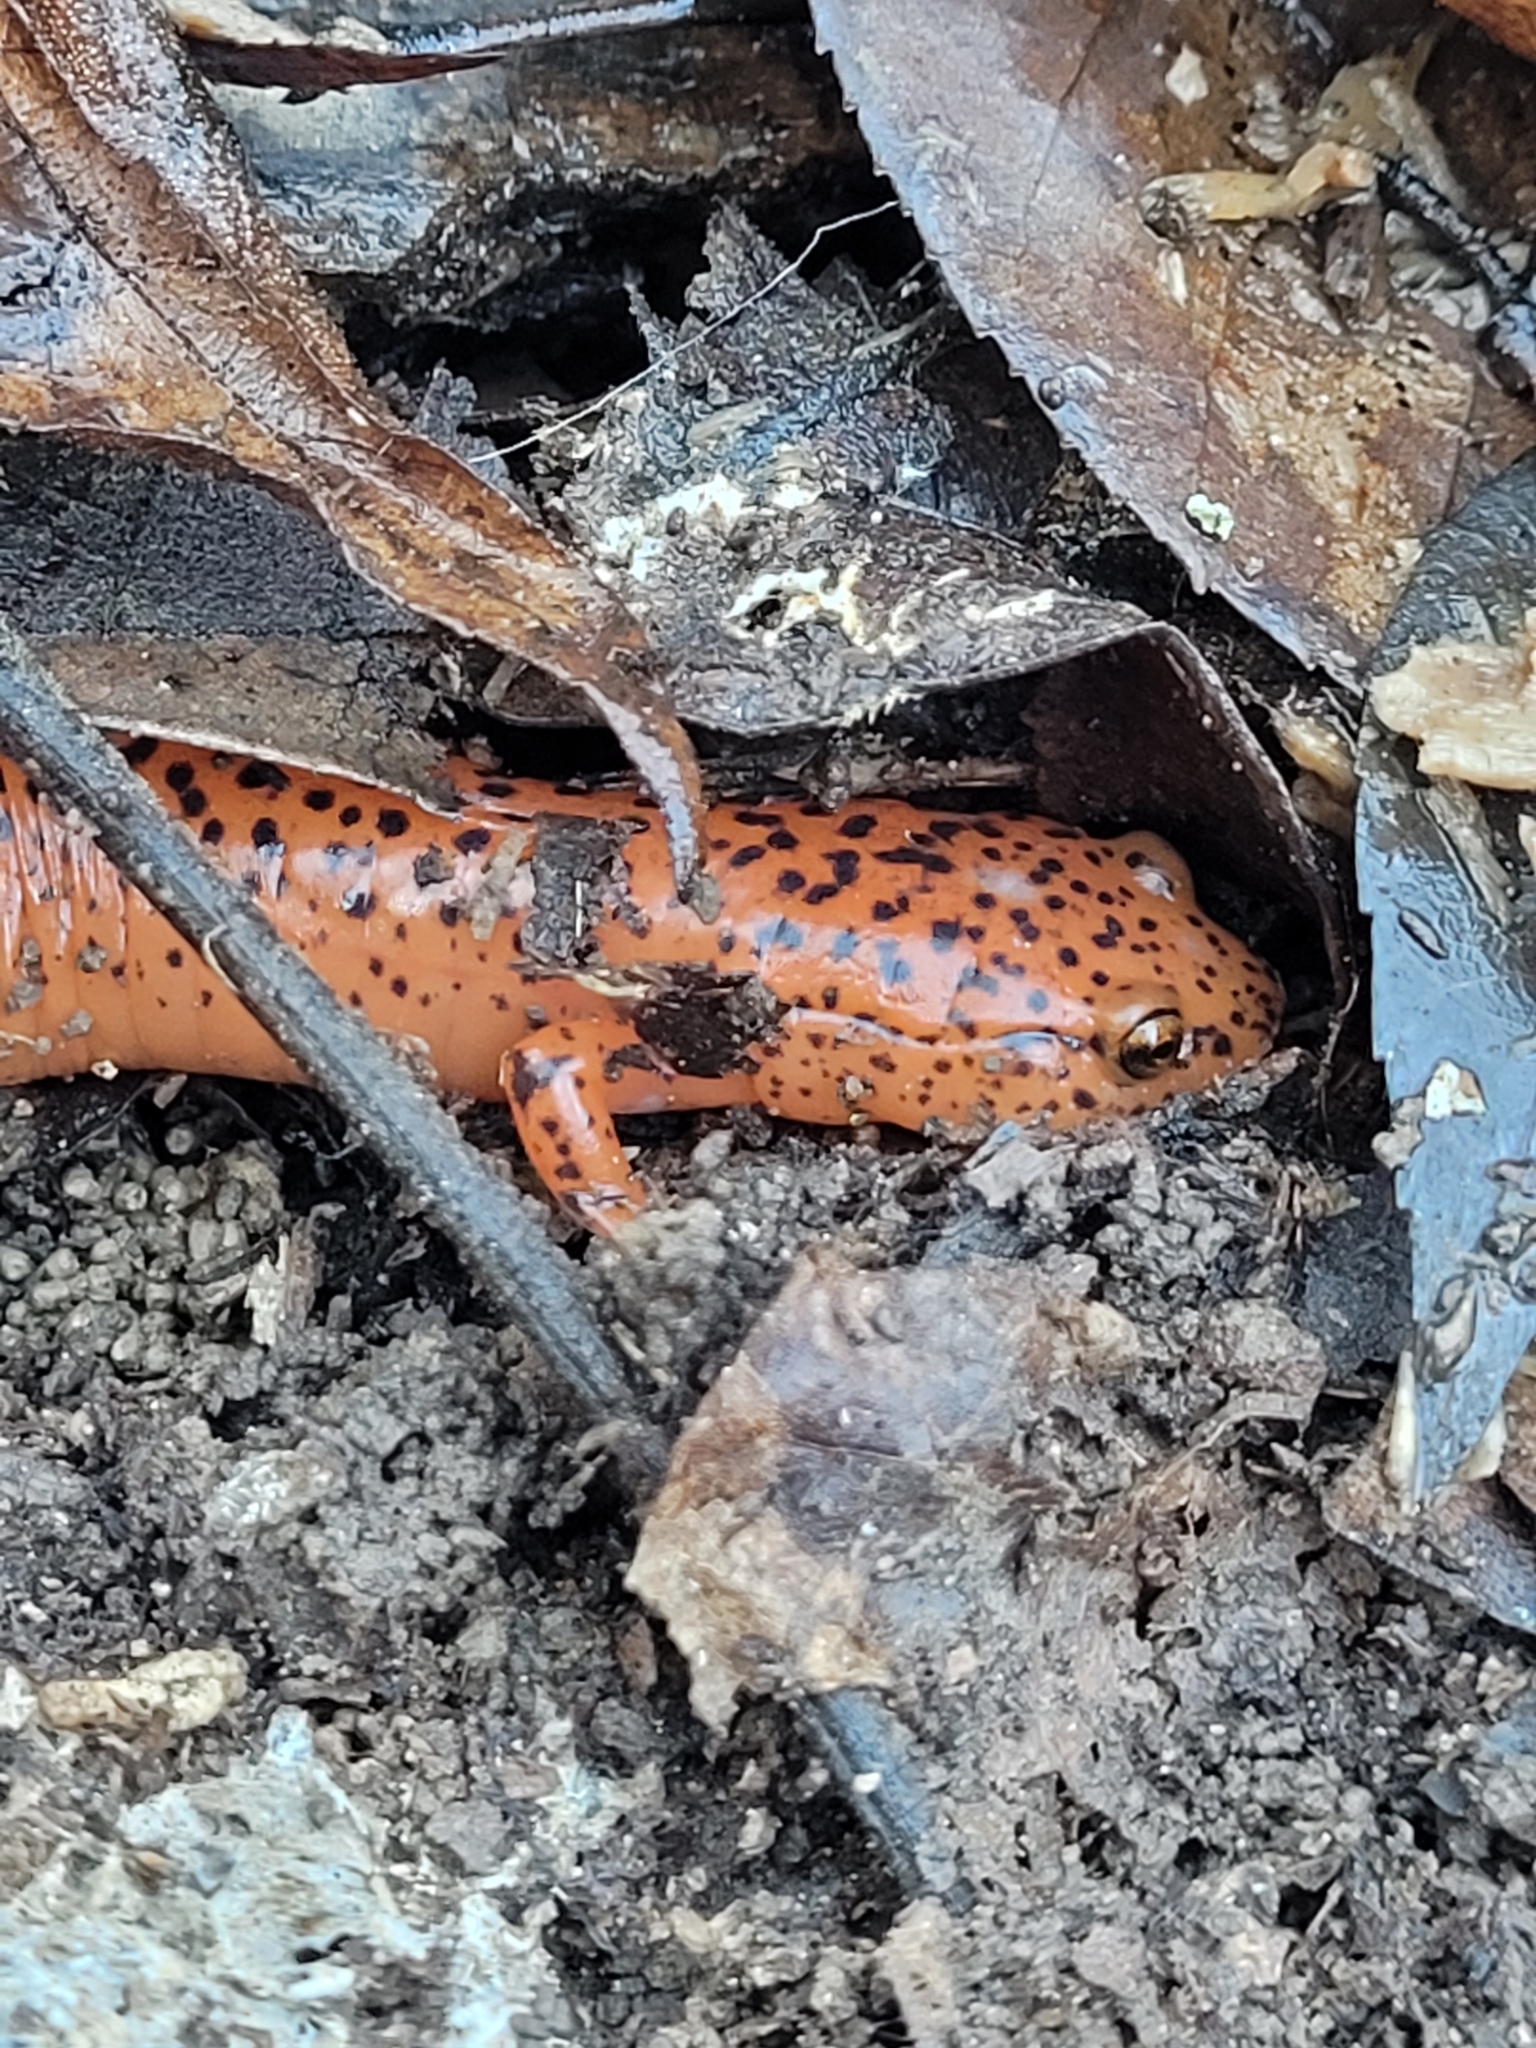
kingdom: Animalia
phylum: Chordata
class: Amphibia
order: Caudata
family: Plethodontidae
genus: Pseudotriton
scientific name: Pseudotriton ruber
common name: Red salamander
